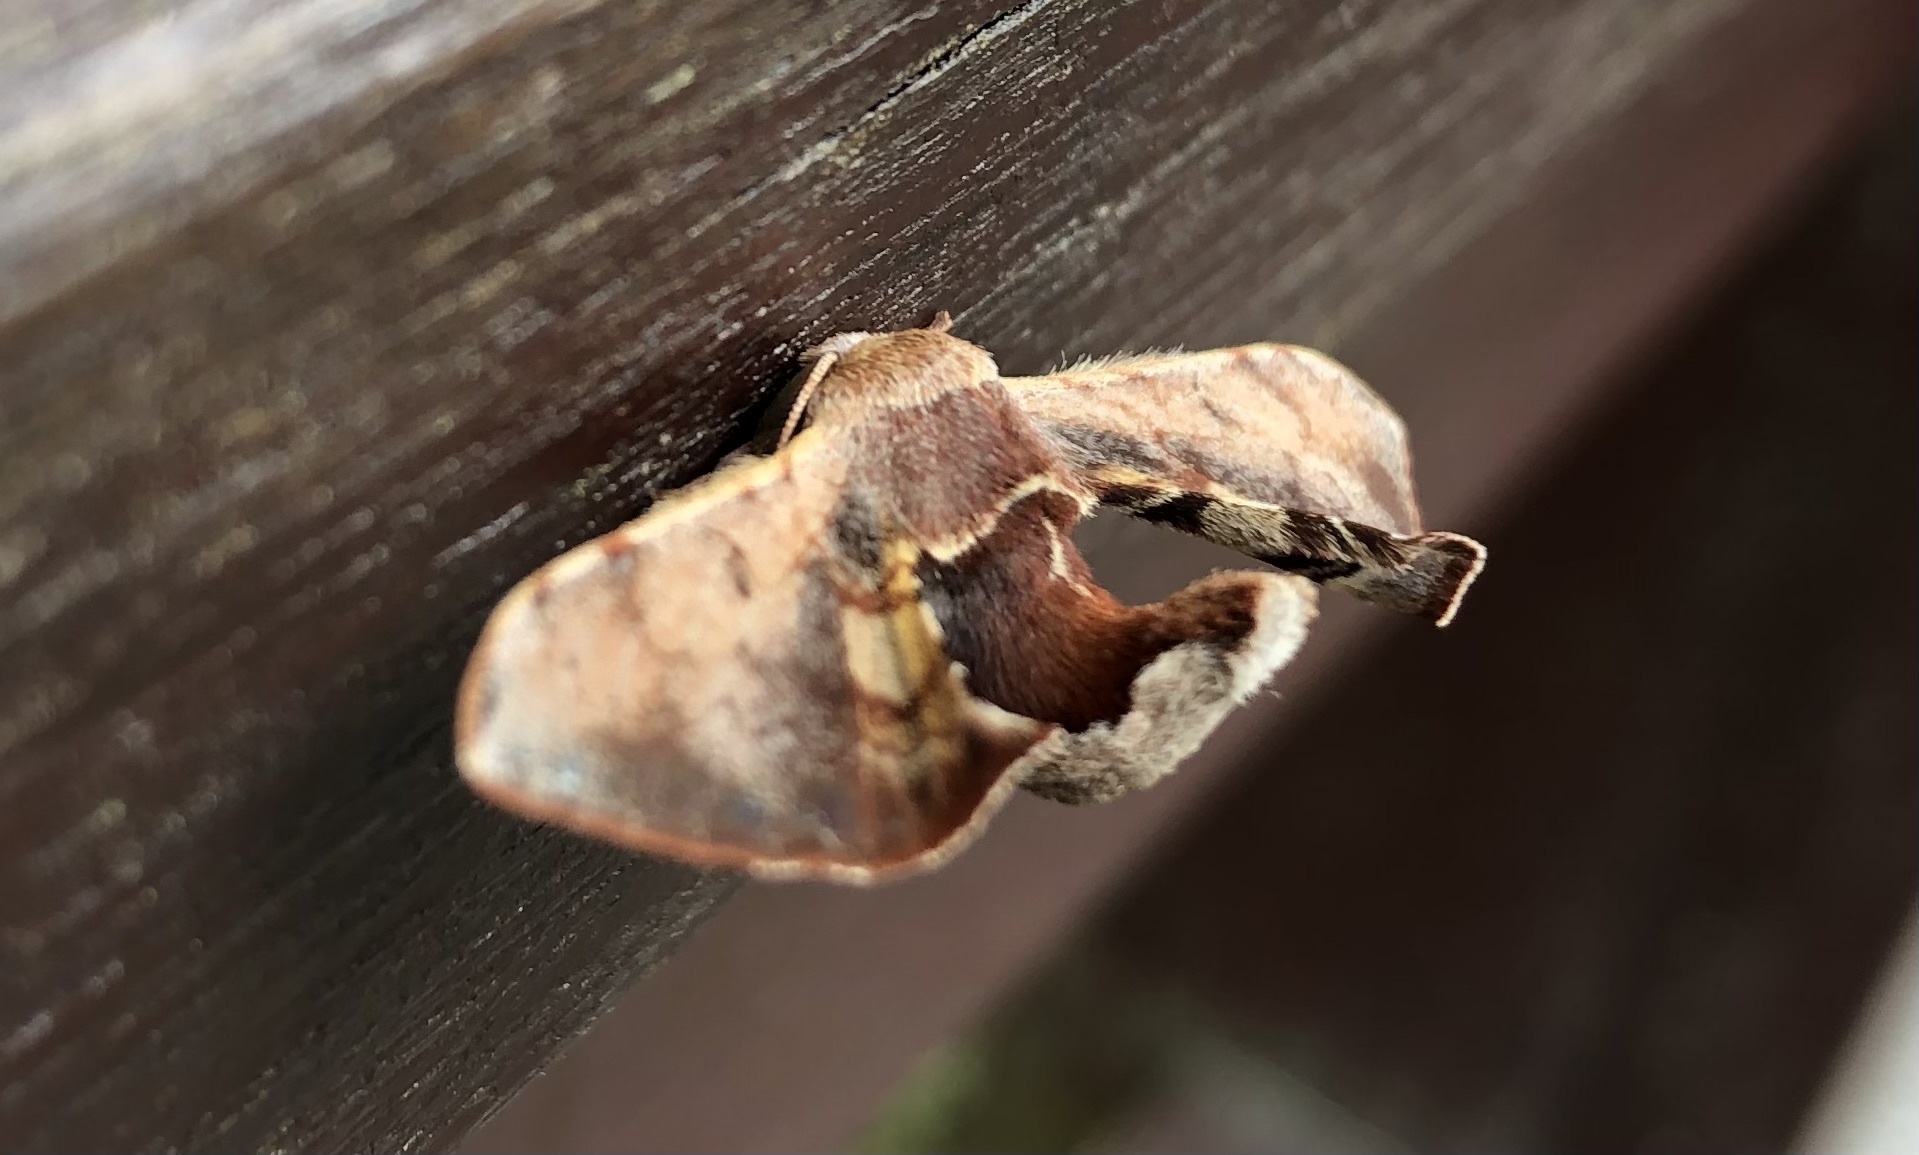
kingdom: Animalia
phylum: Arthropoda
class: Insecta
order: Lepidoptera
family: Bombycidae
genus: Triuncina
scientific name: Triuncina brunnea
